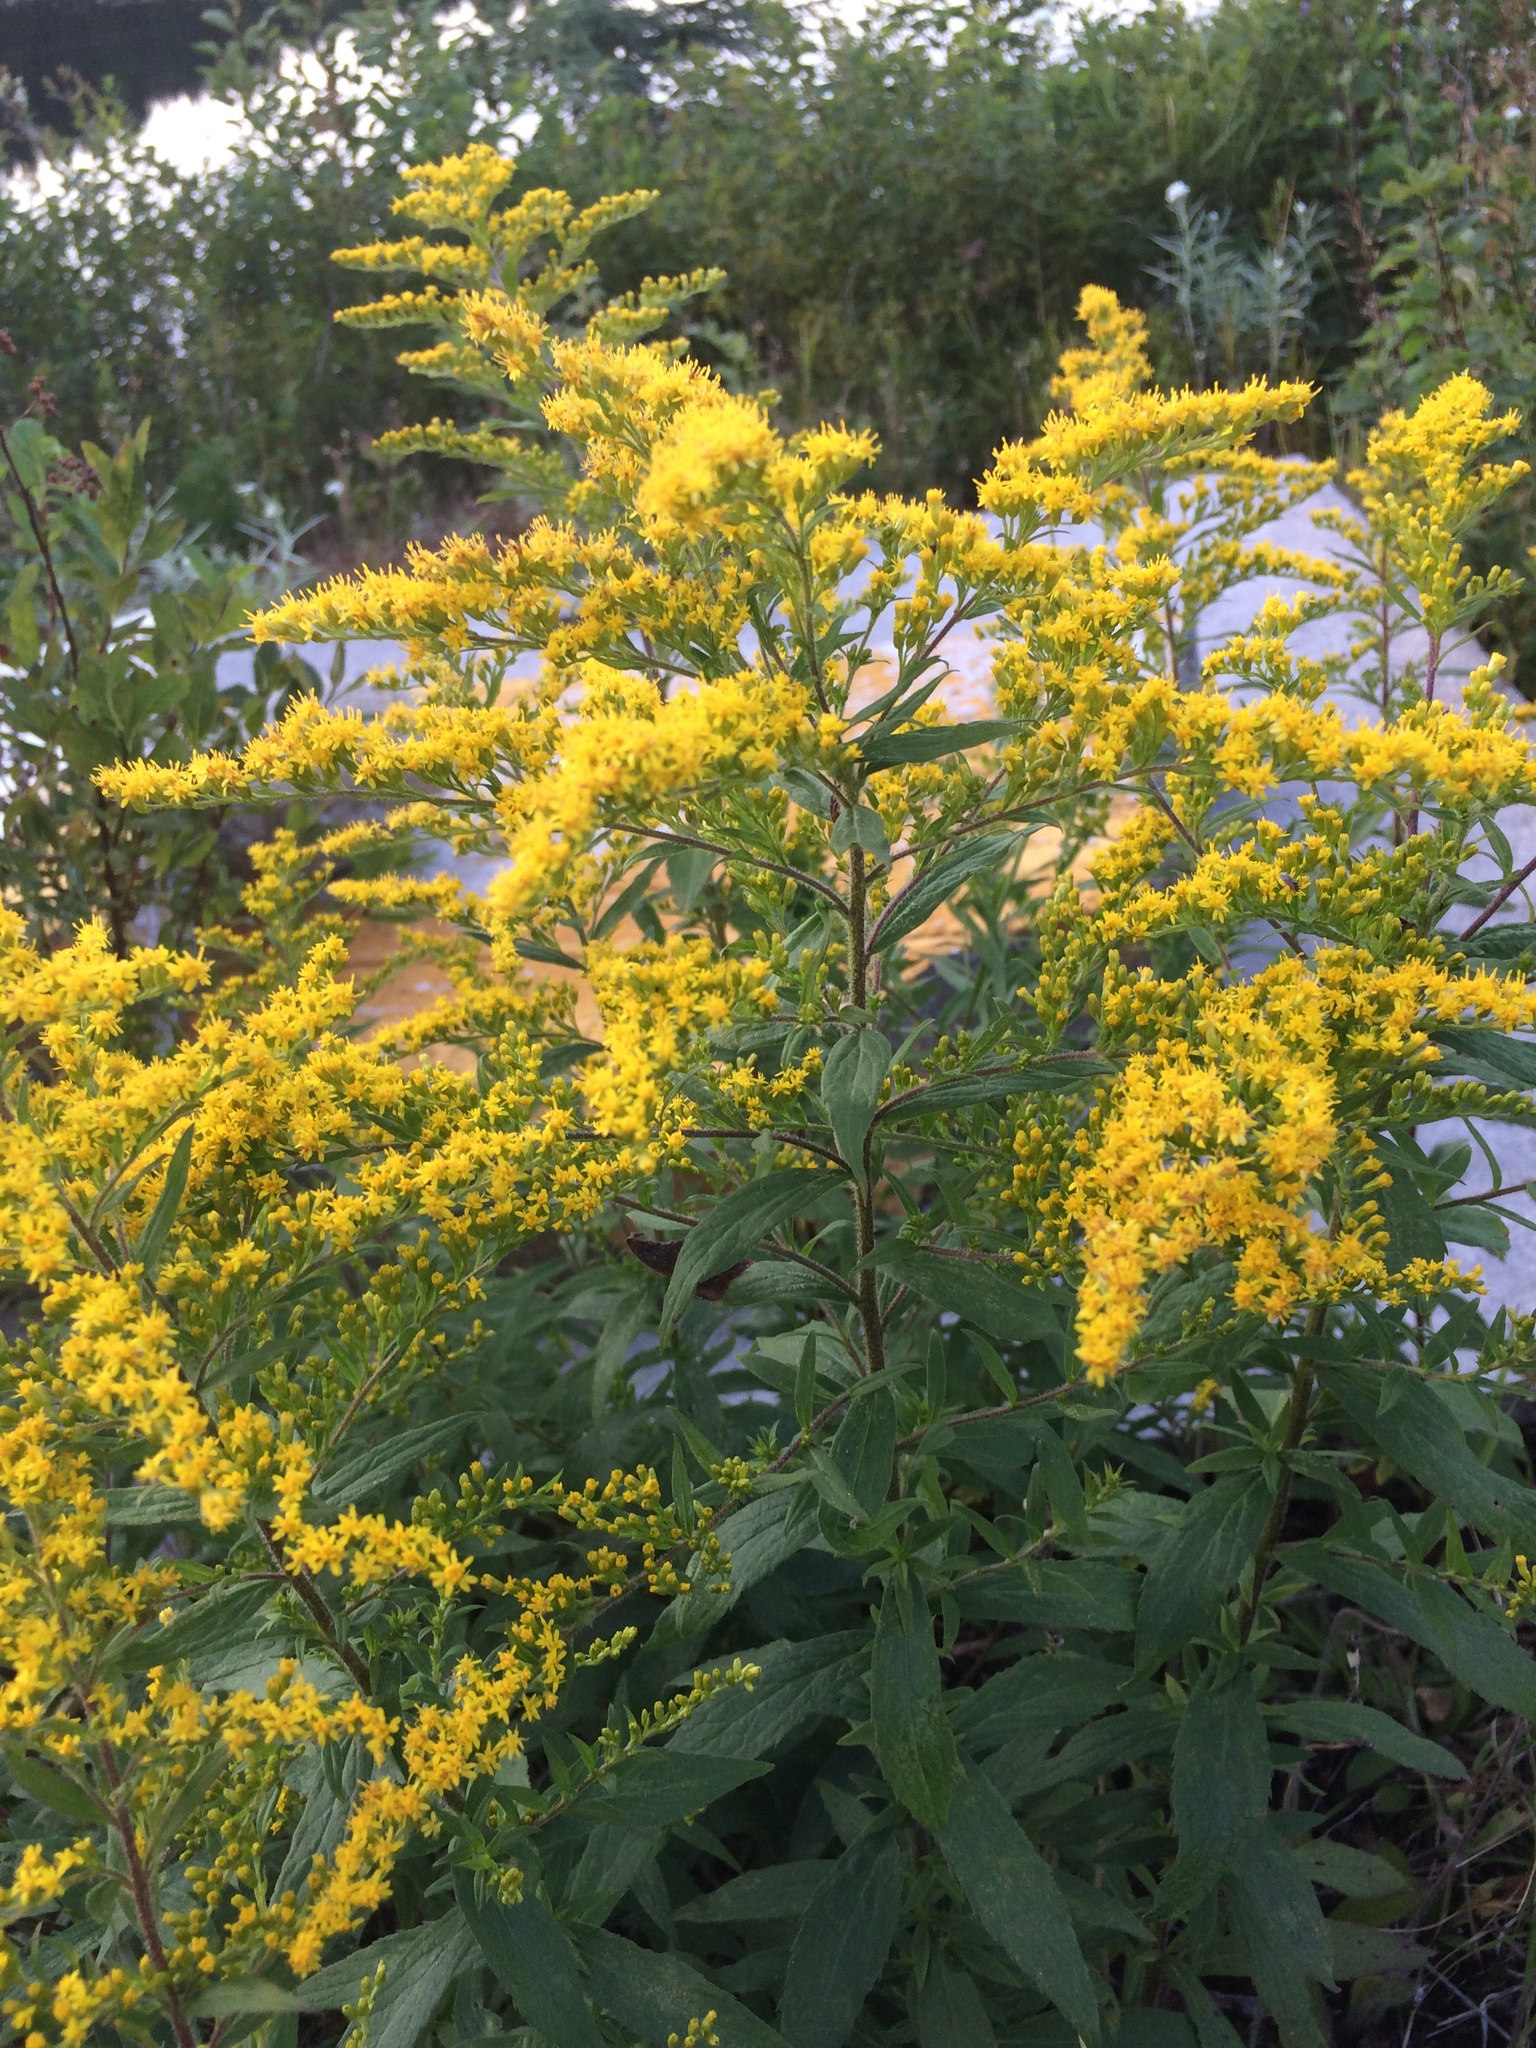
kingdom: Plantae
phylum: Tracheophyta
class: Magnoliopsida
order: Asterales
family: Asteraceae
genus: Solidago
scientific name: Solidago rugosa
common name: Rough-stemmed goldenrod
